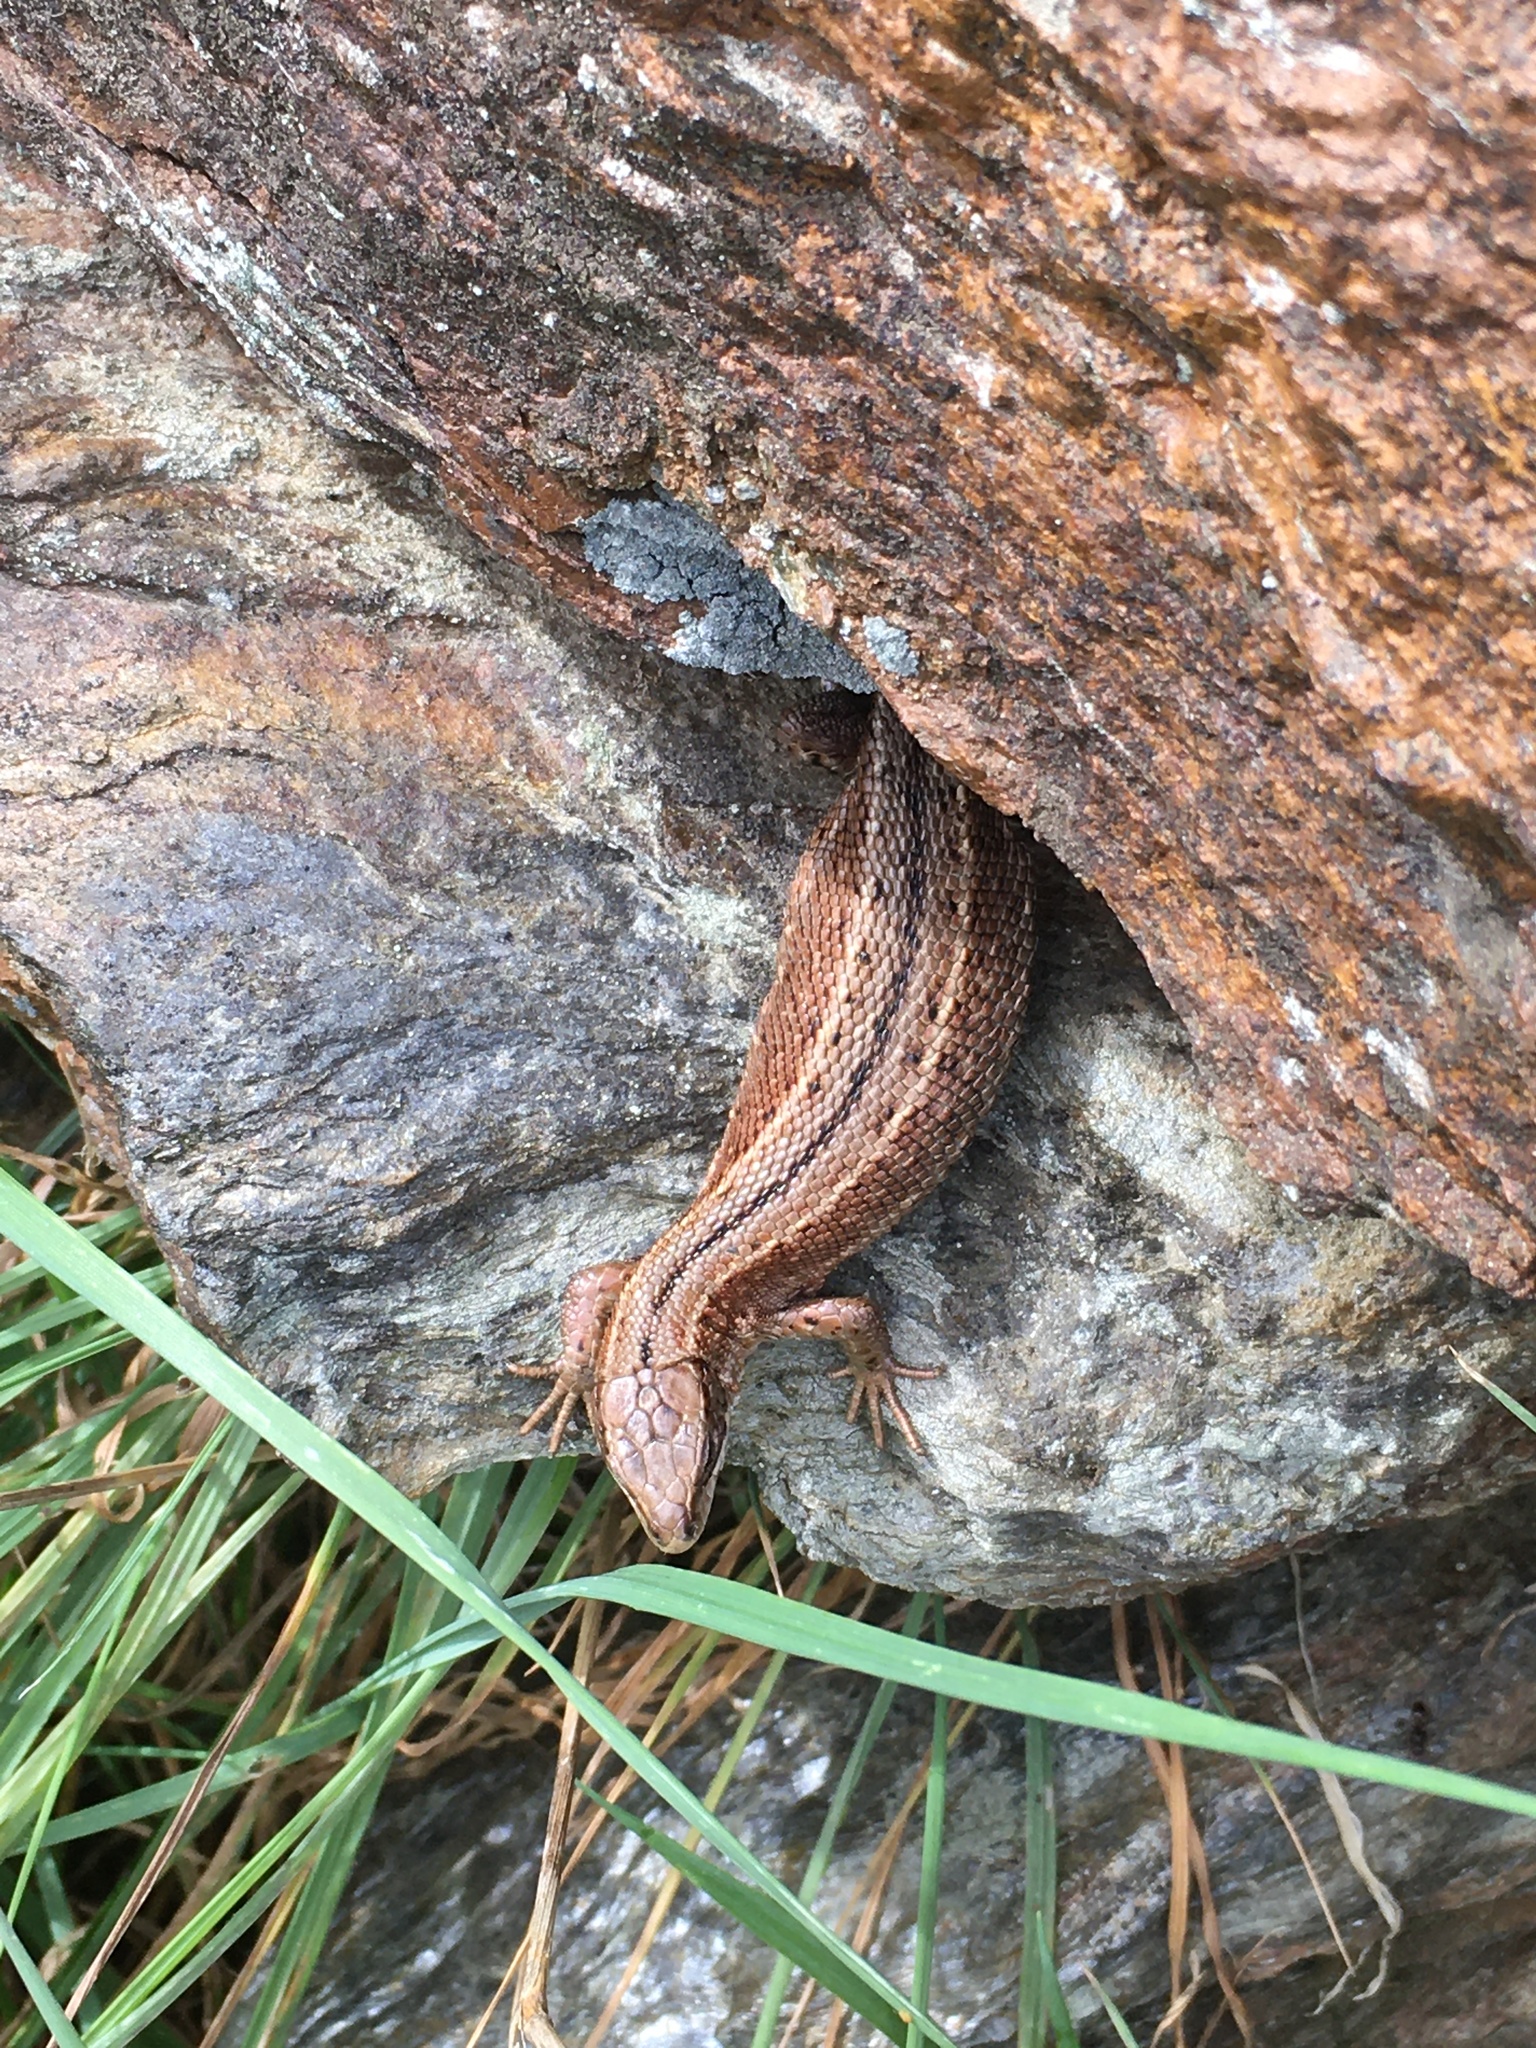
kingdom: Animalia
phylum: Chordata
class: Squamata
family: Lacertidae
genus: Zootoca
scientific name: Zootoca vivipara
